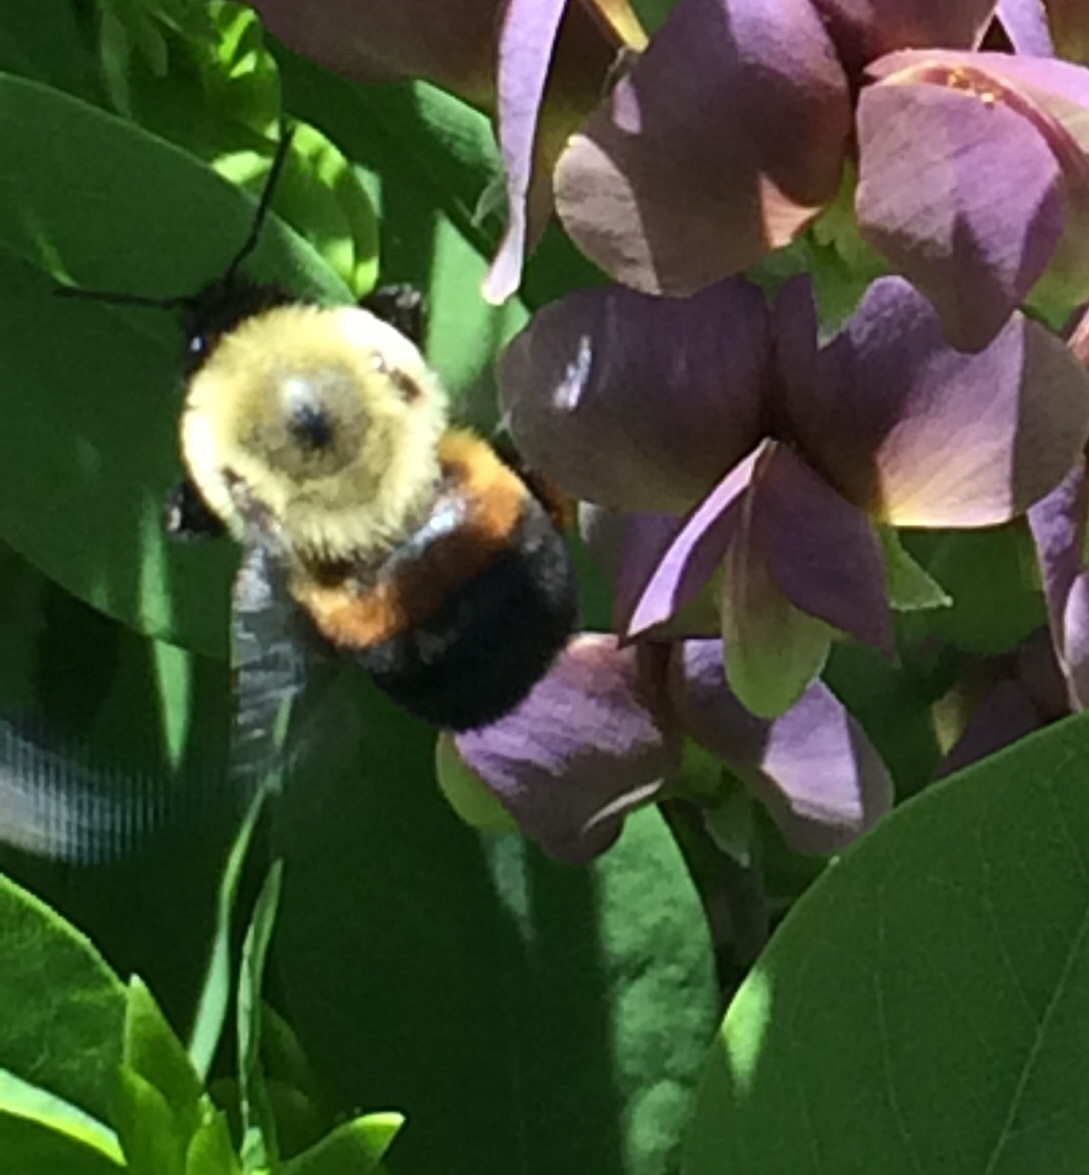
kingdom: Animalia
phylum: Arthropoda
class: Insecta
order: Hymenoptera
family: Apidae
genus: Bombus
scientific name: Bombus griseocollis
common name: Brown-belted bumble bee
